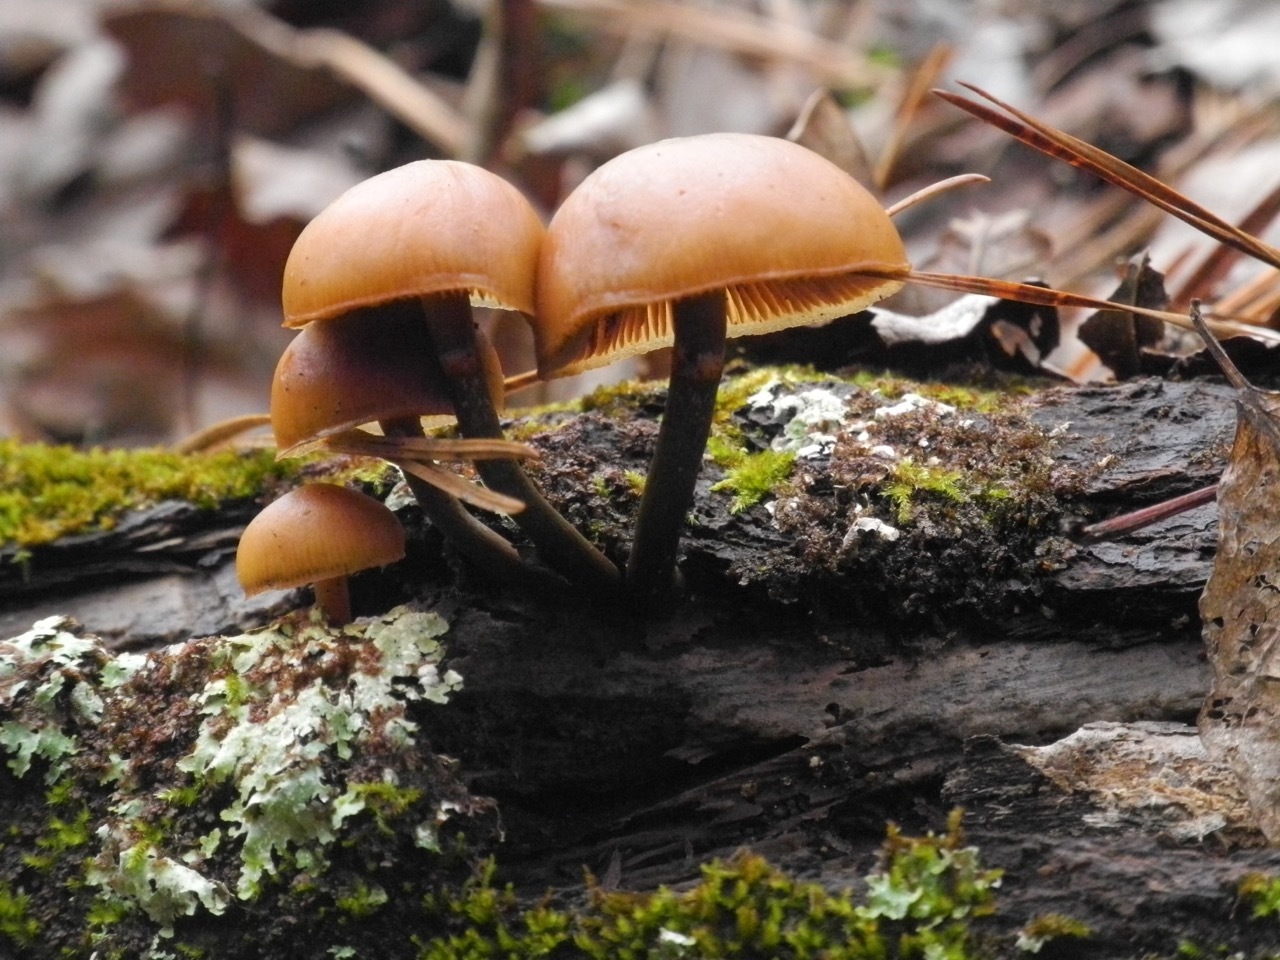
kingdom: Fungi
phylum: Basidiomycota
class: Agaricomycetes
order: Agaricales
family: Hymenogastraceae
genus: Galerina
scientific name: Galerina marginata
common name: Funeral bell
